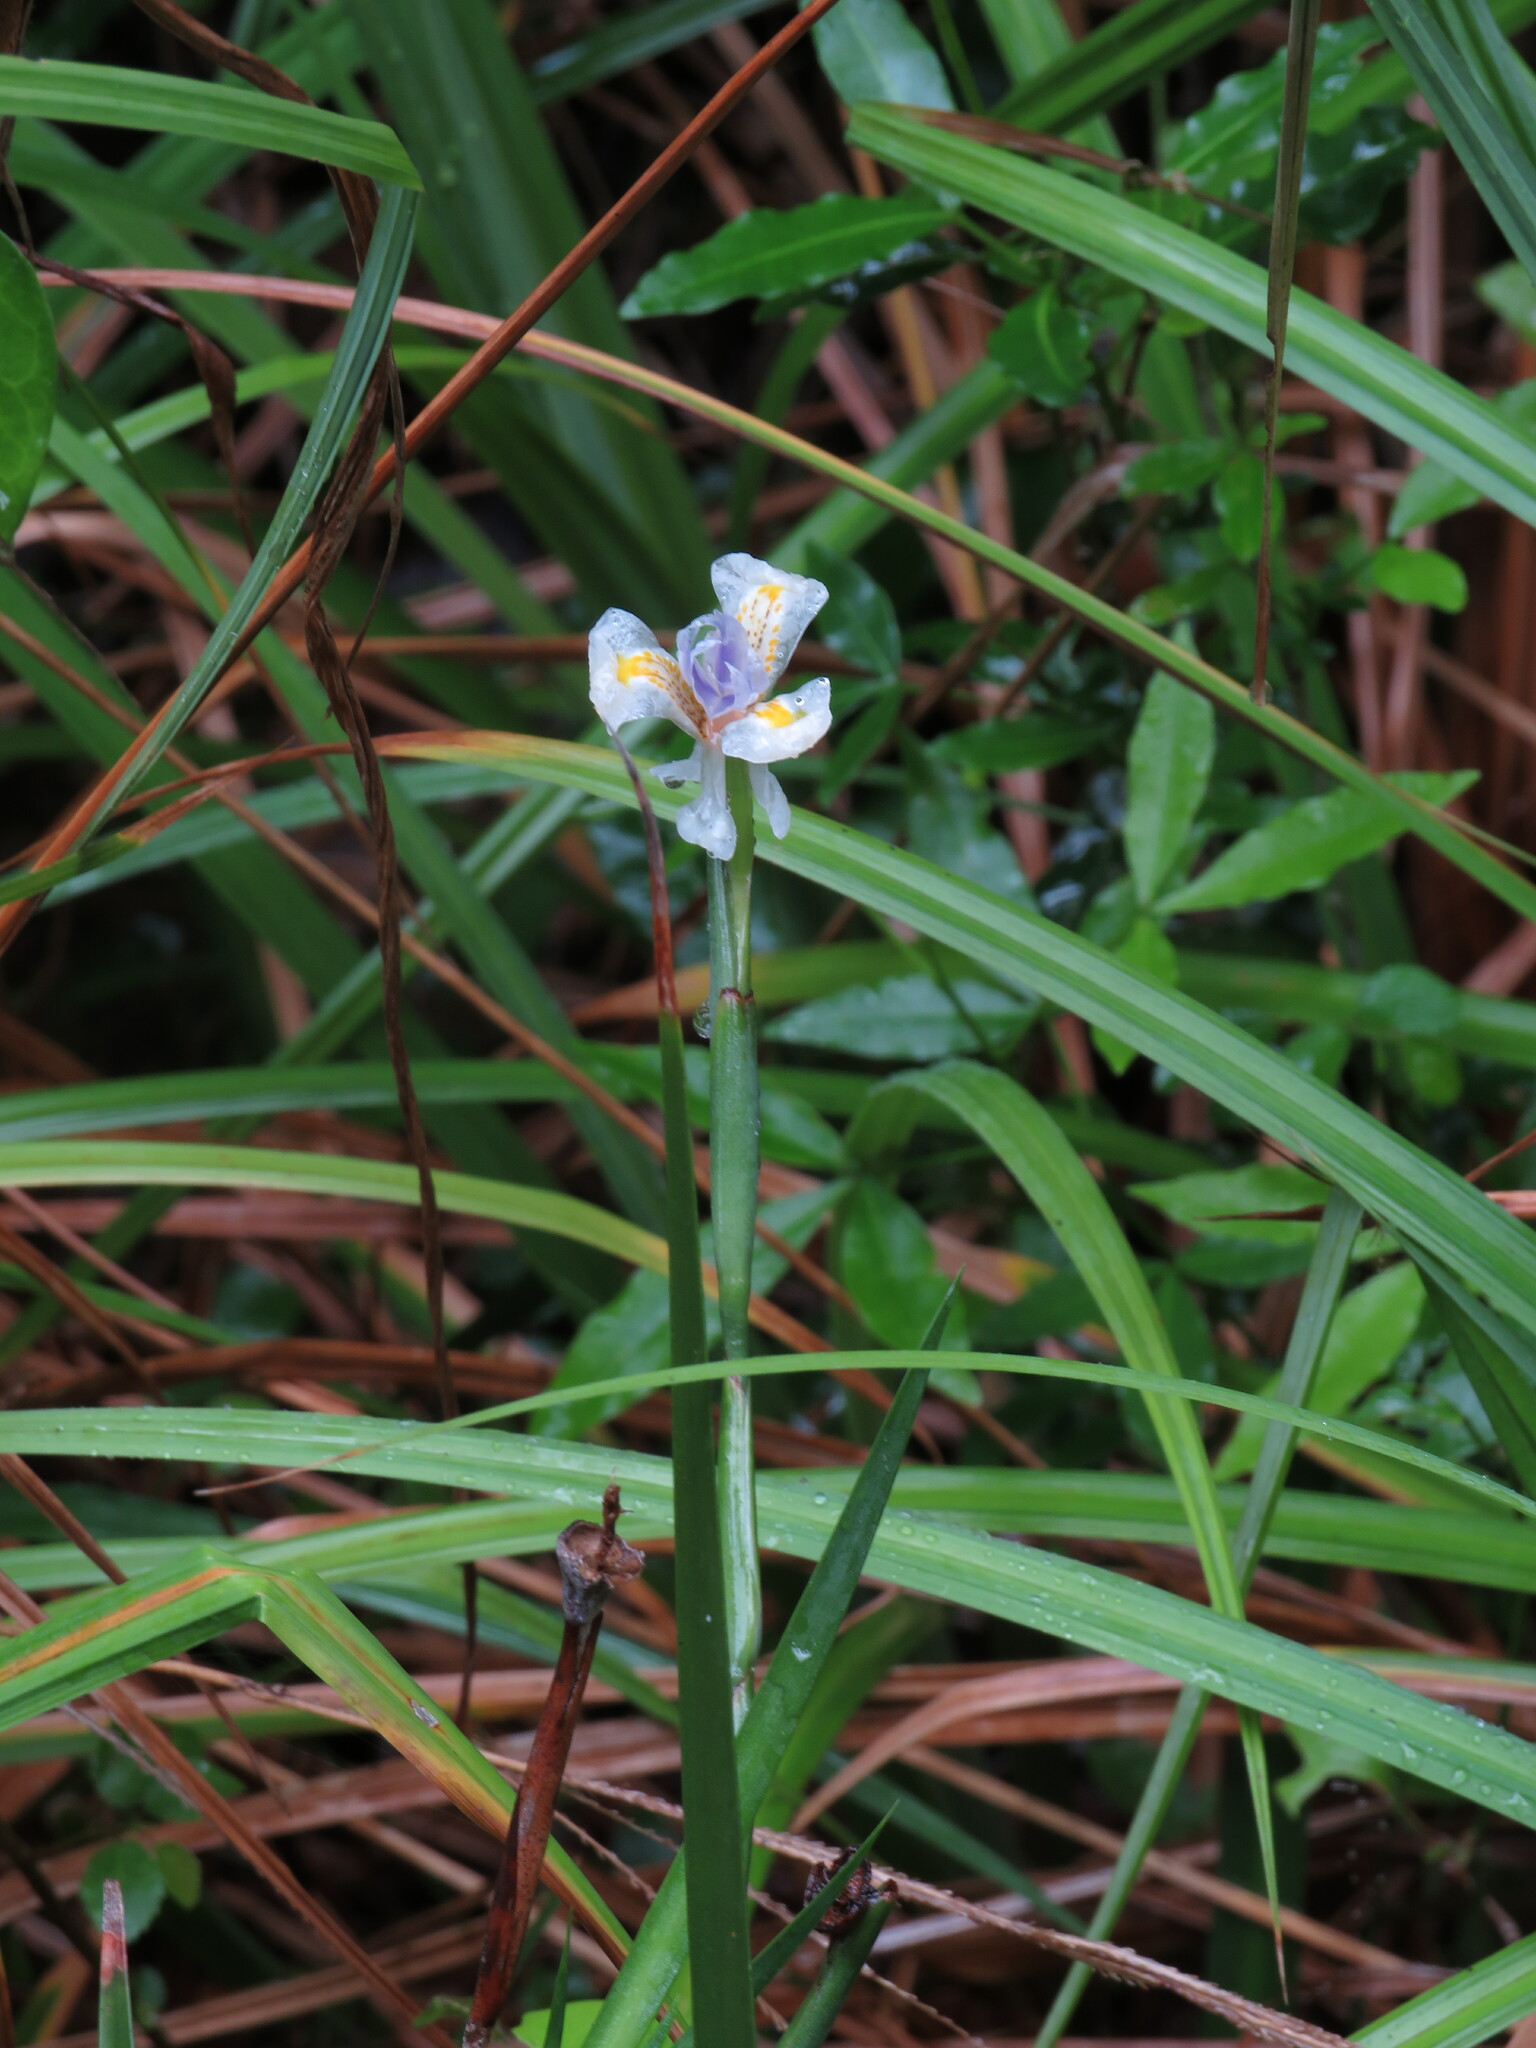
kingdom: Plantae
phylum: Tracheophyta
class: Liliopsida
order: Asparagales
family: Iridaceae
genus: Dietes
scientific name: Dietes iridioides
